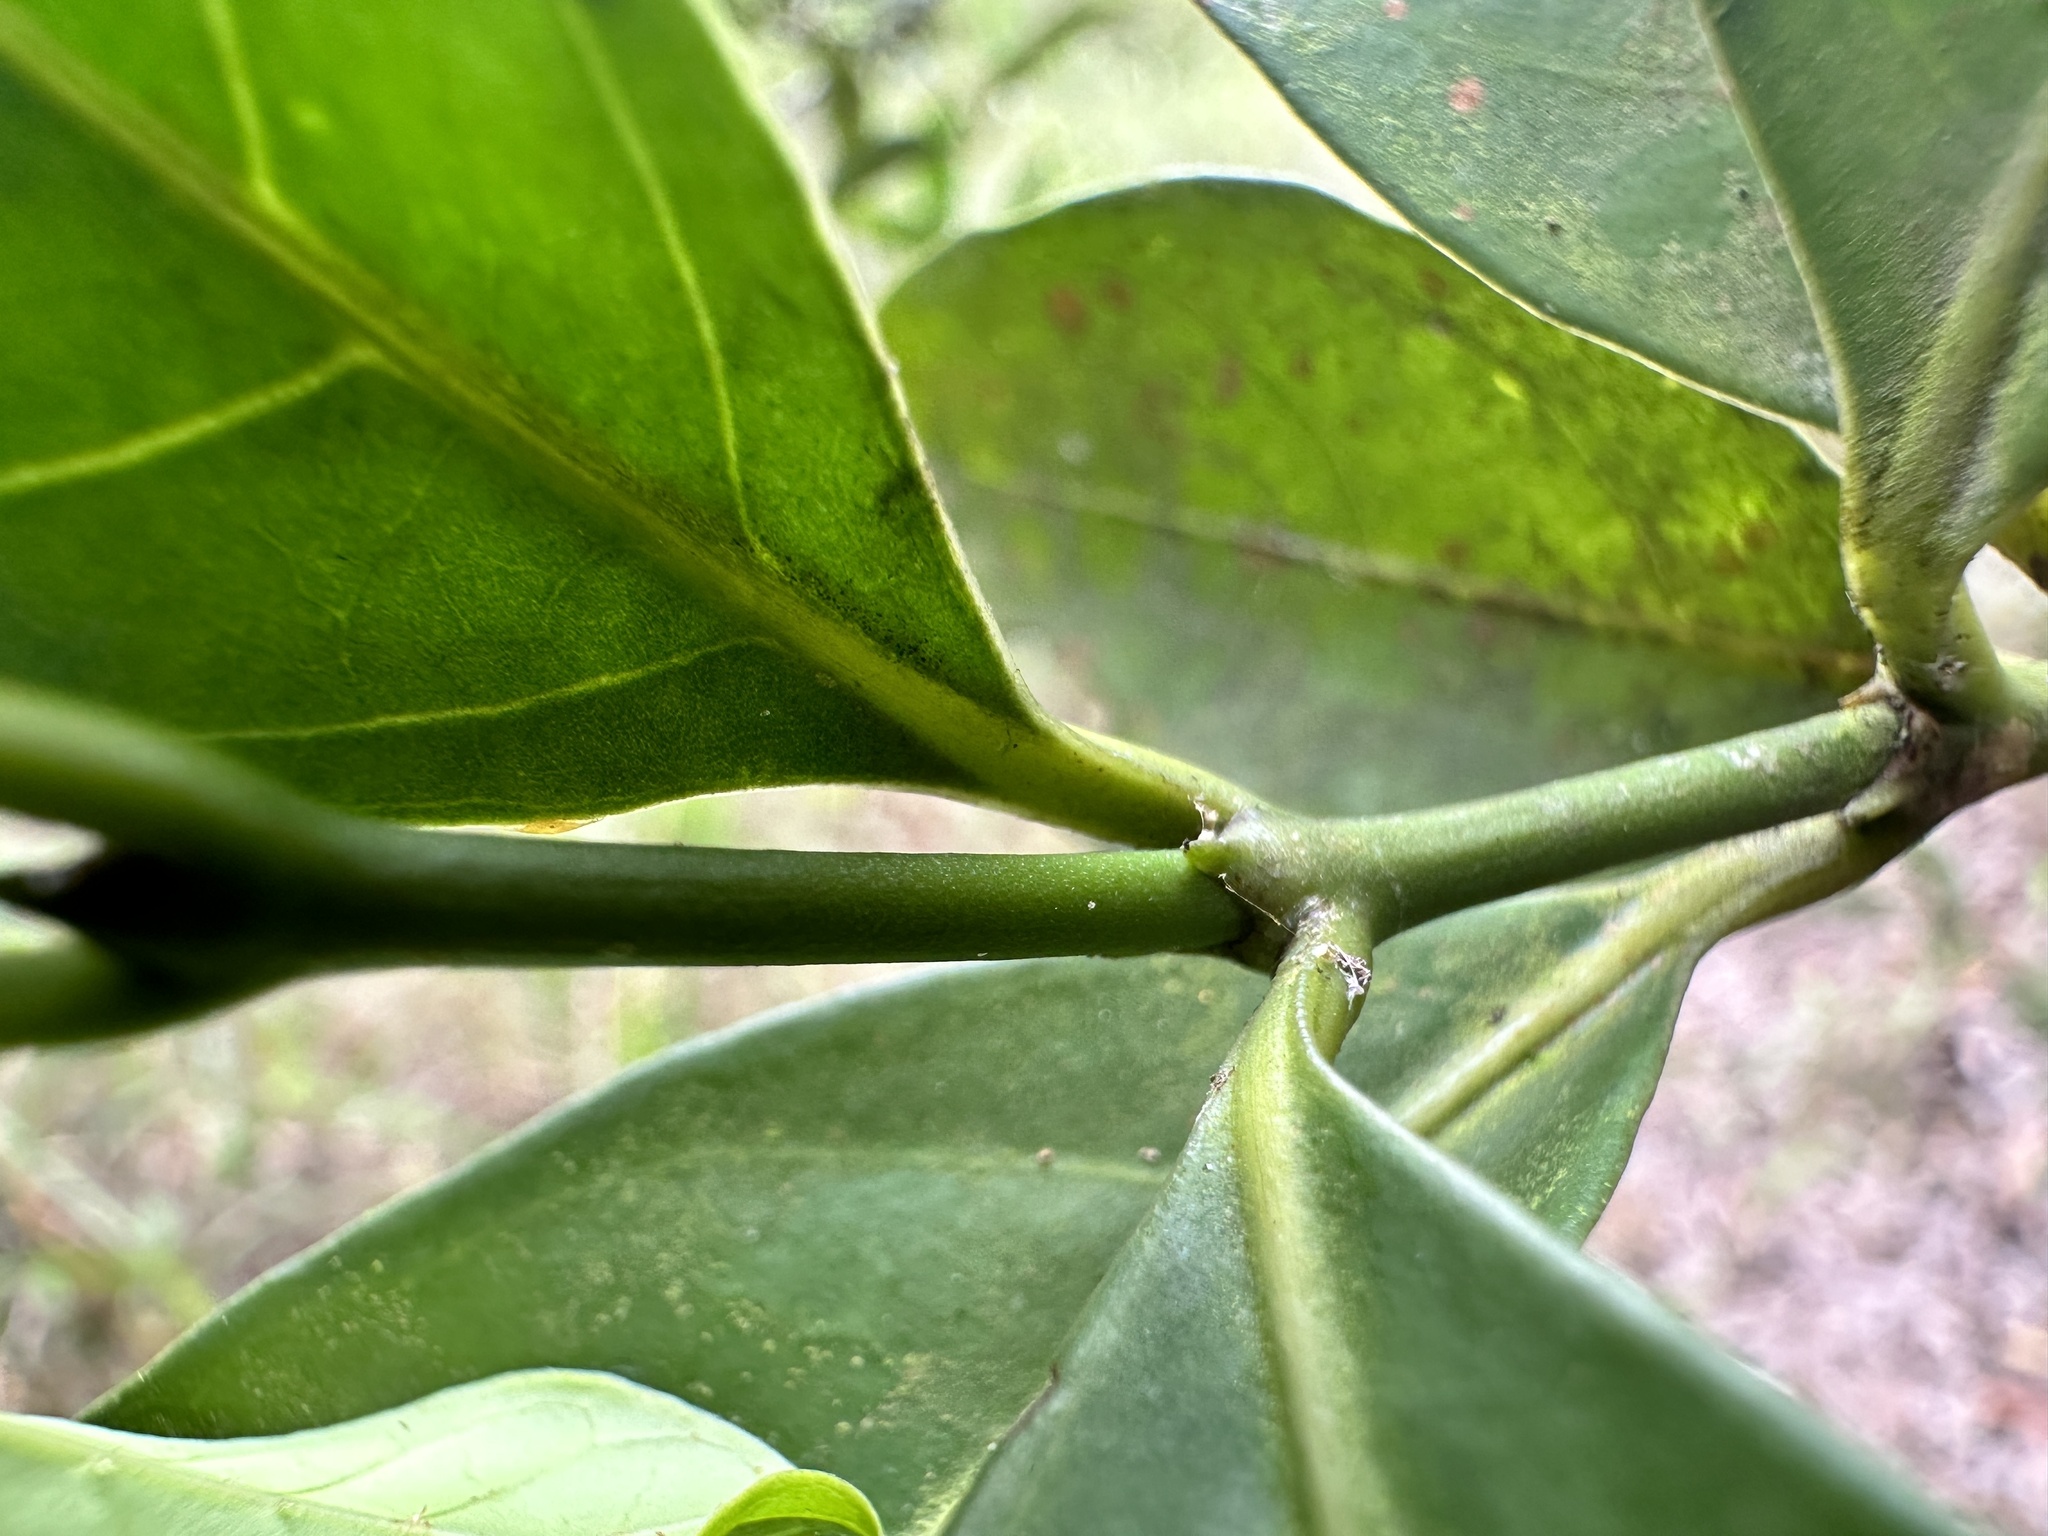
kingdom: Plantae
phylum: Tracheophyta
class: Magnoliopsida
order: Gentianales
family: Rubiaceae
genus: Oxyceros
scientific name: Oxyceros longiflorus
